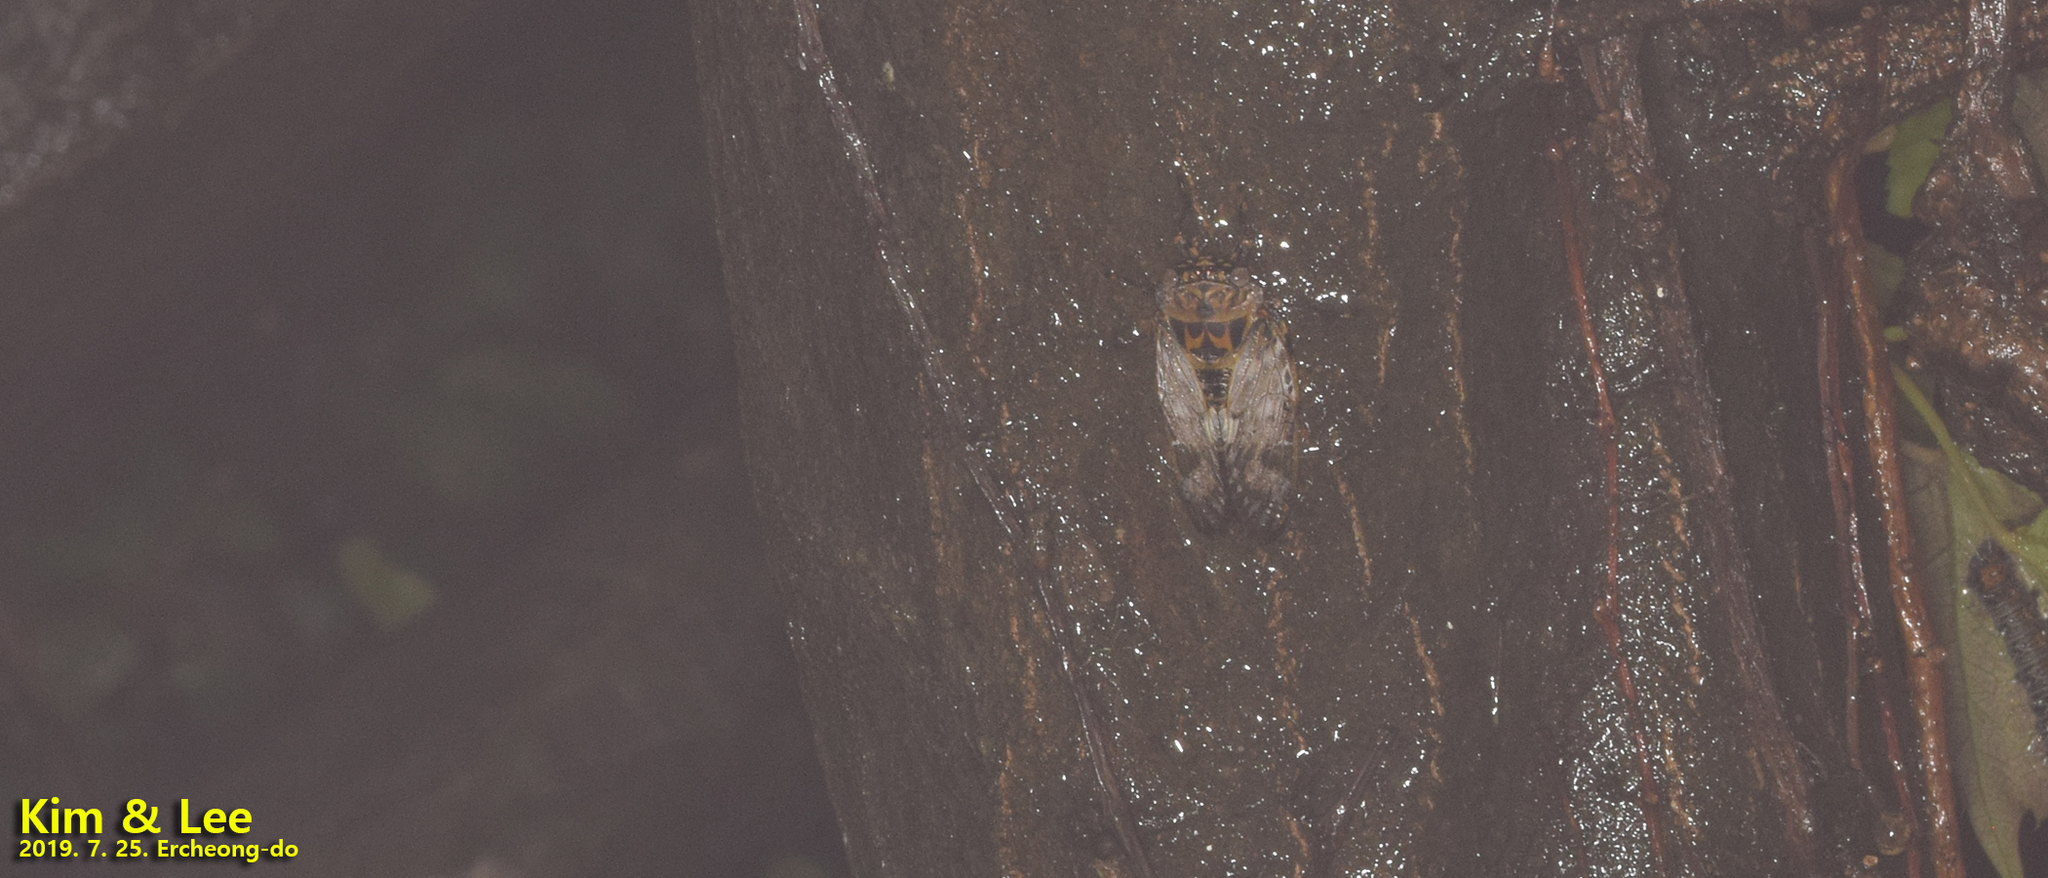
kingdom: Animalia
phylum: Arthropoda
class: Insecta
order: Hemiptera
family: Cicadidae
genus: Platypleura
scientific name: Platypleura kaempferi
